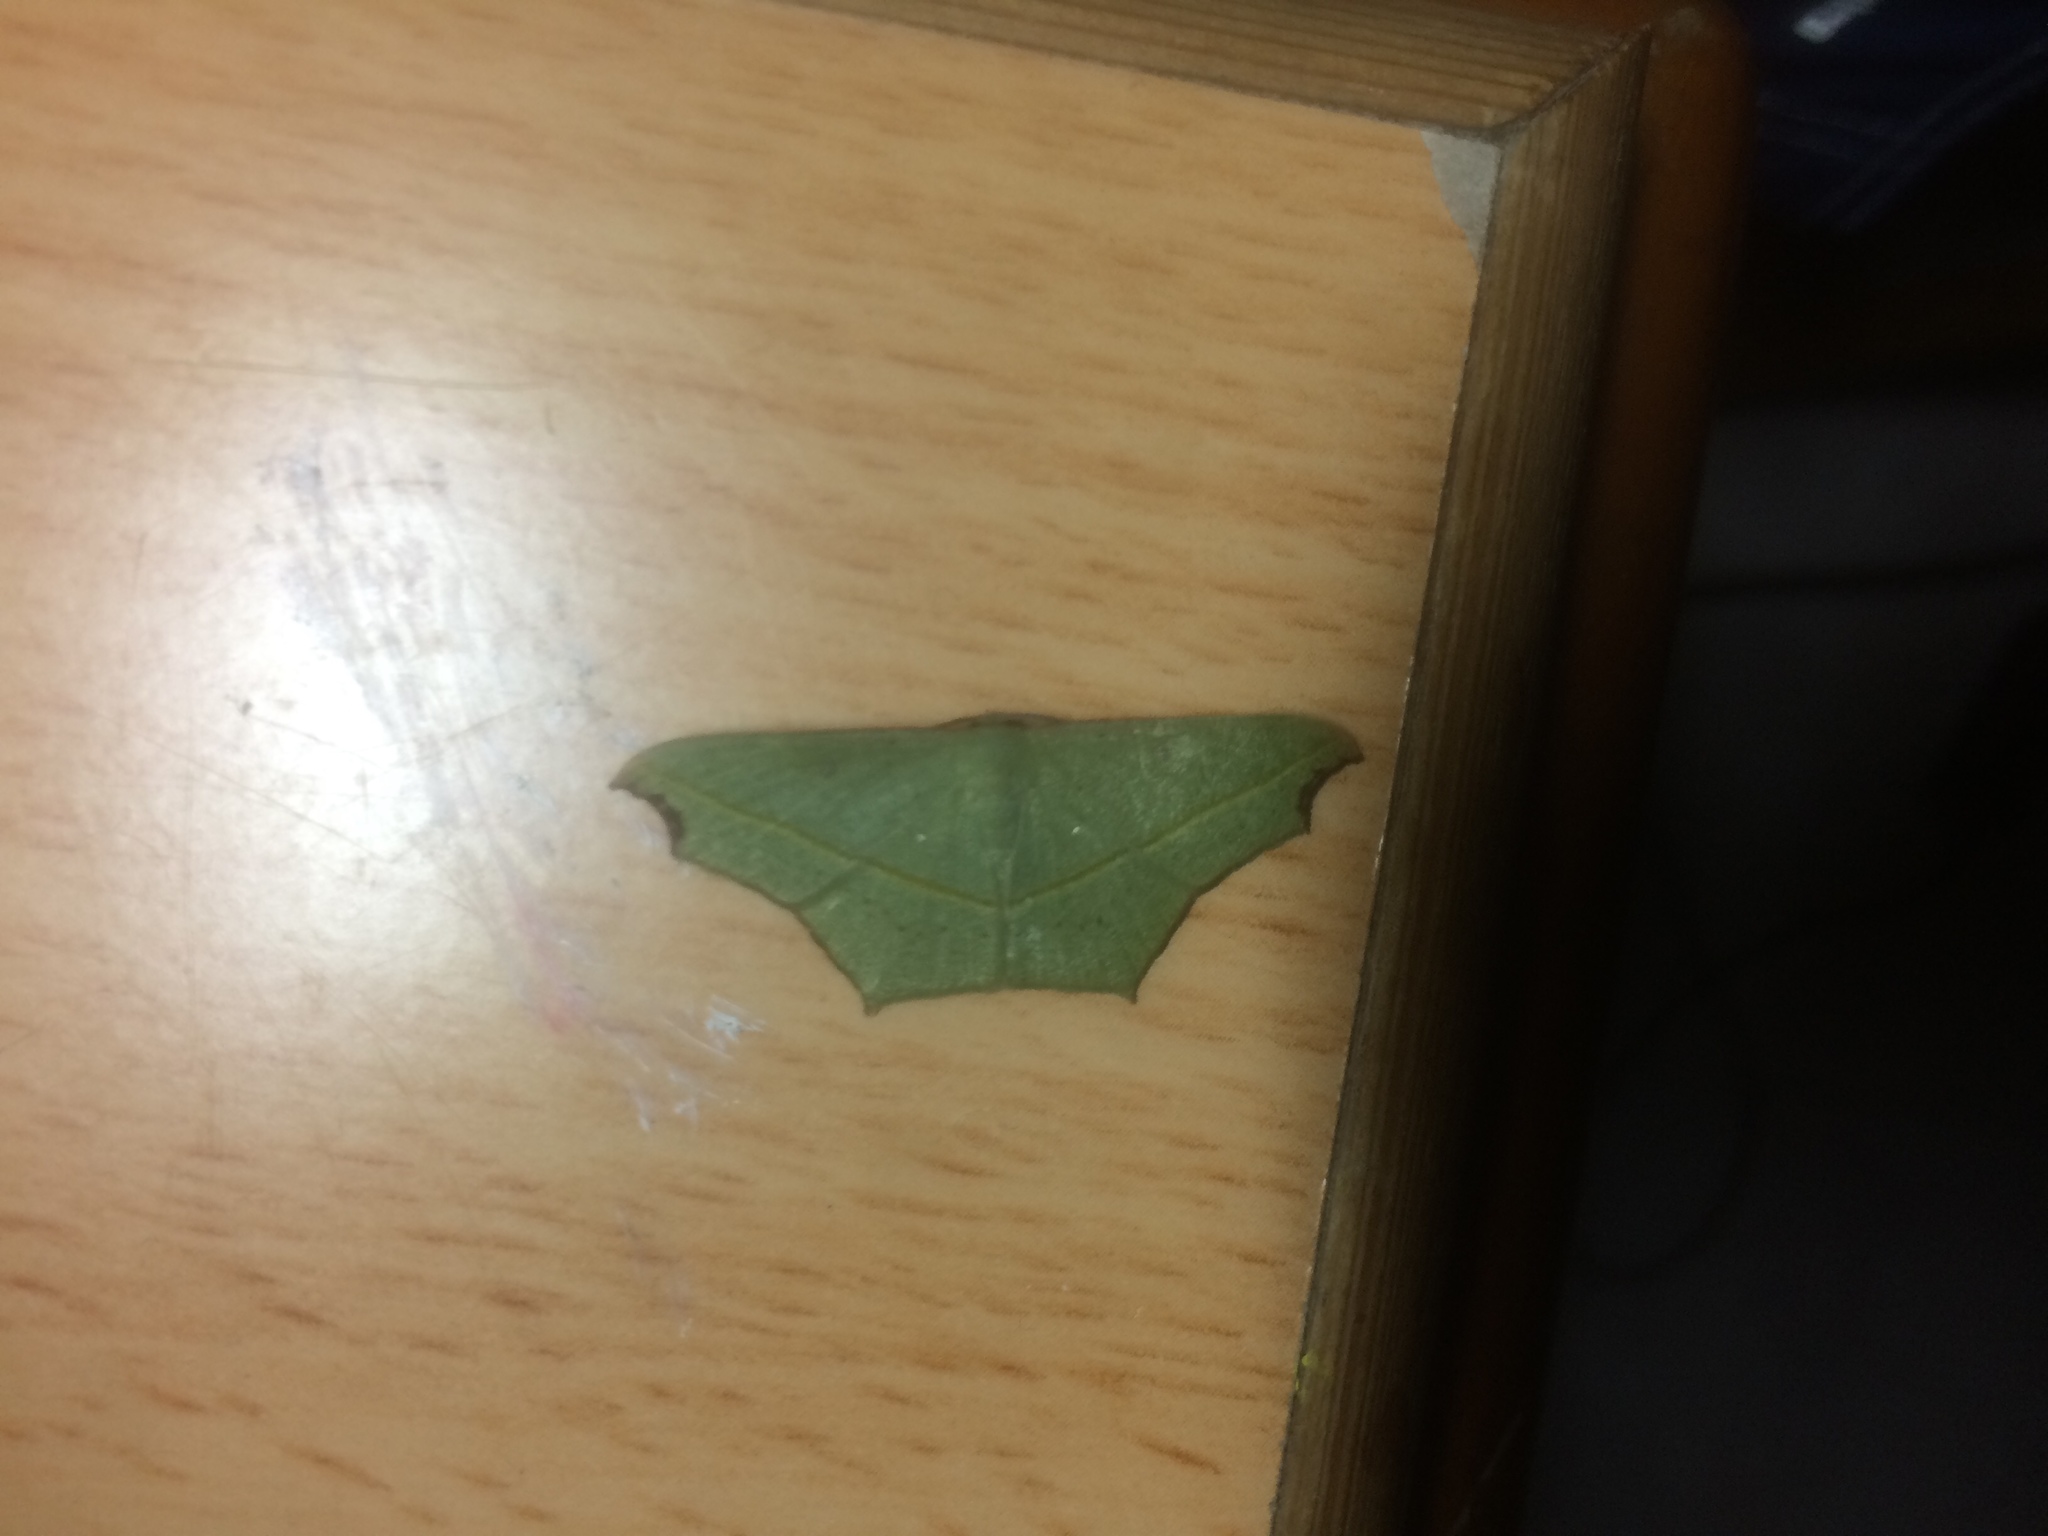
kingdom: Animalia
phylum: Arthropoda
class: Insecta
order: Lepidoptera
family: Geometridae
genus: Traminda
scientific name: Traminda aventiaria
